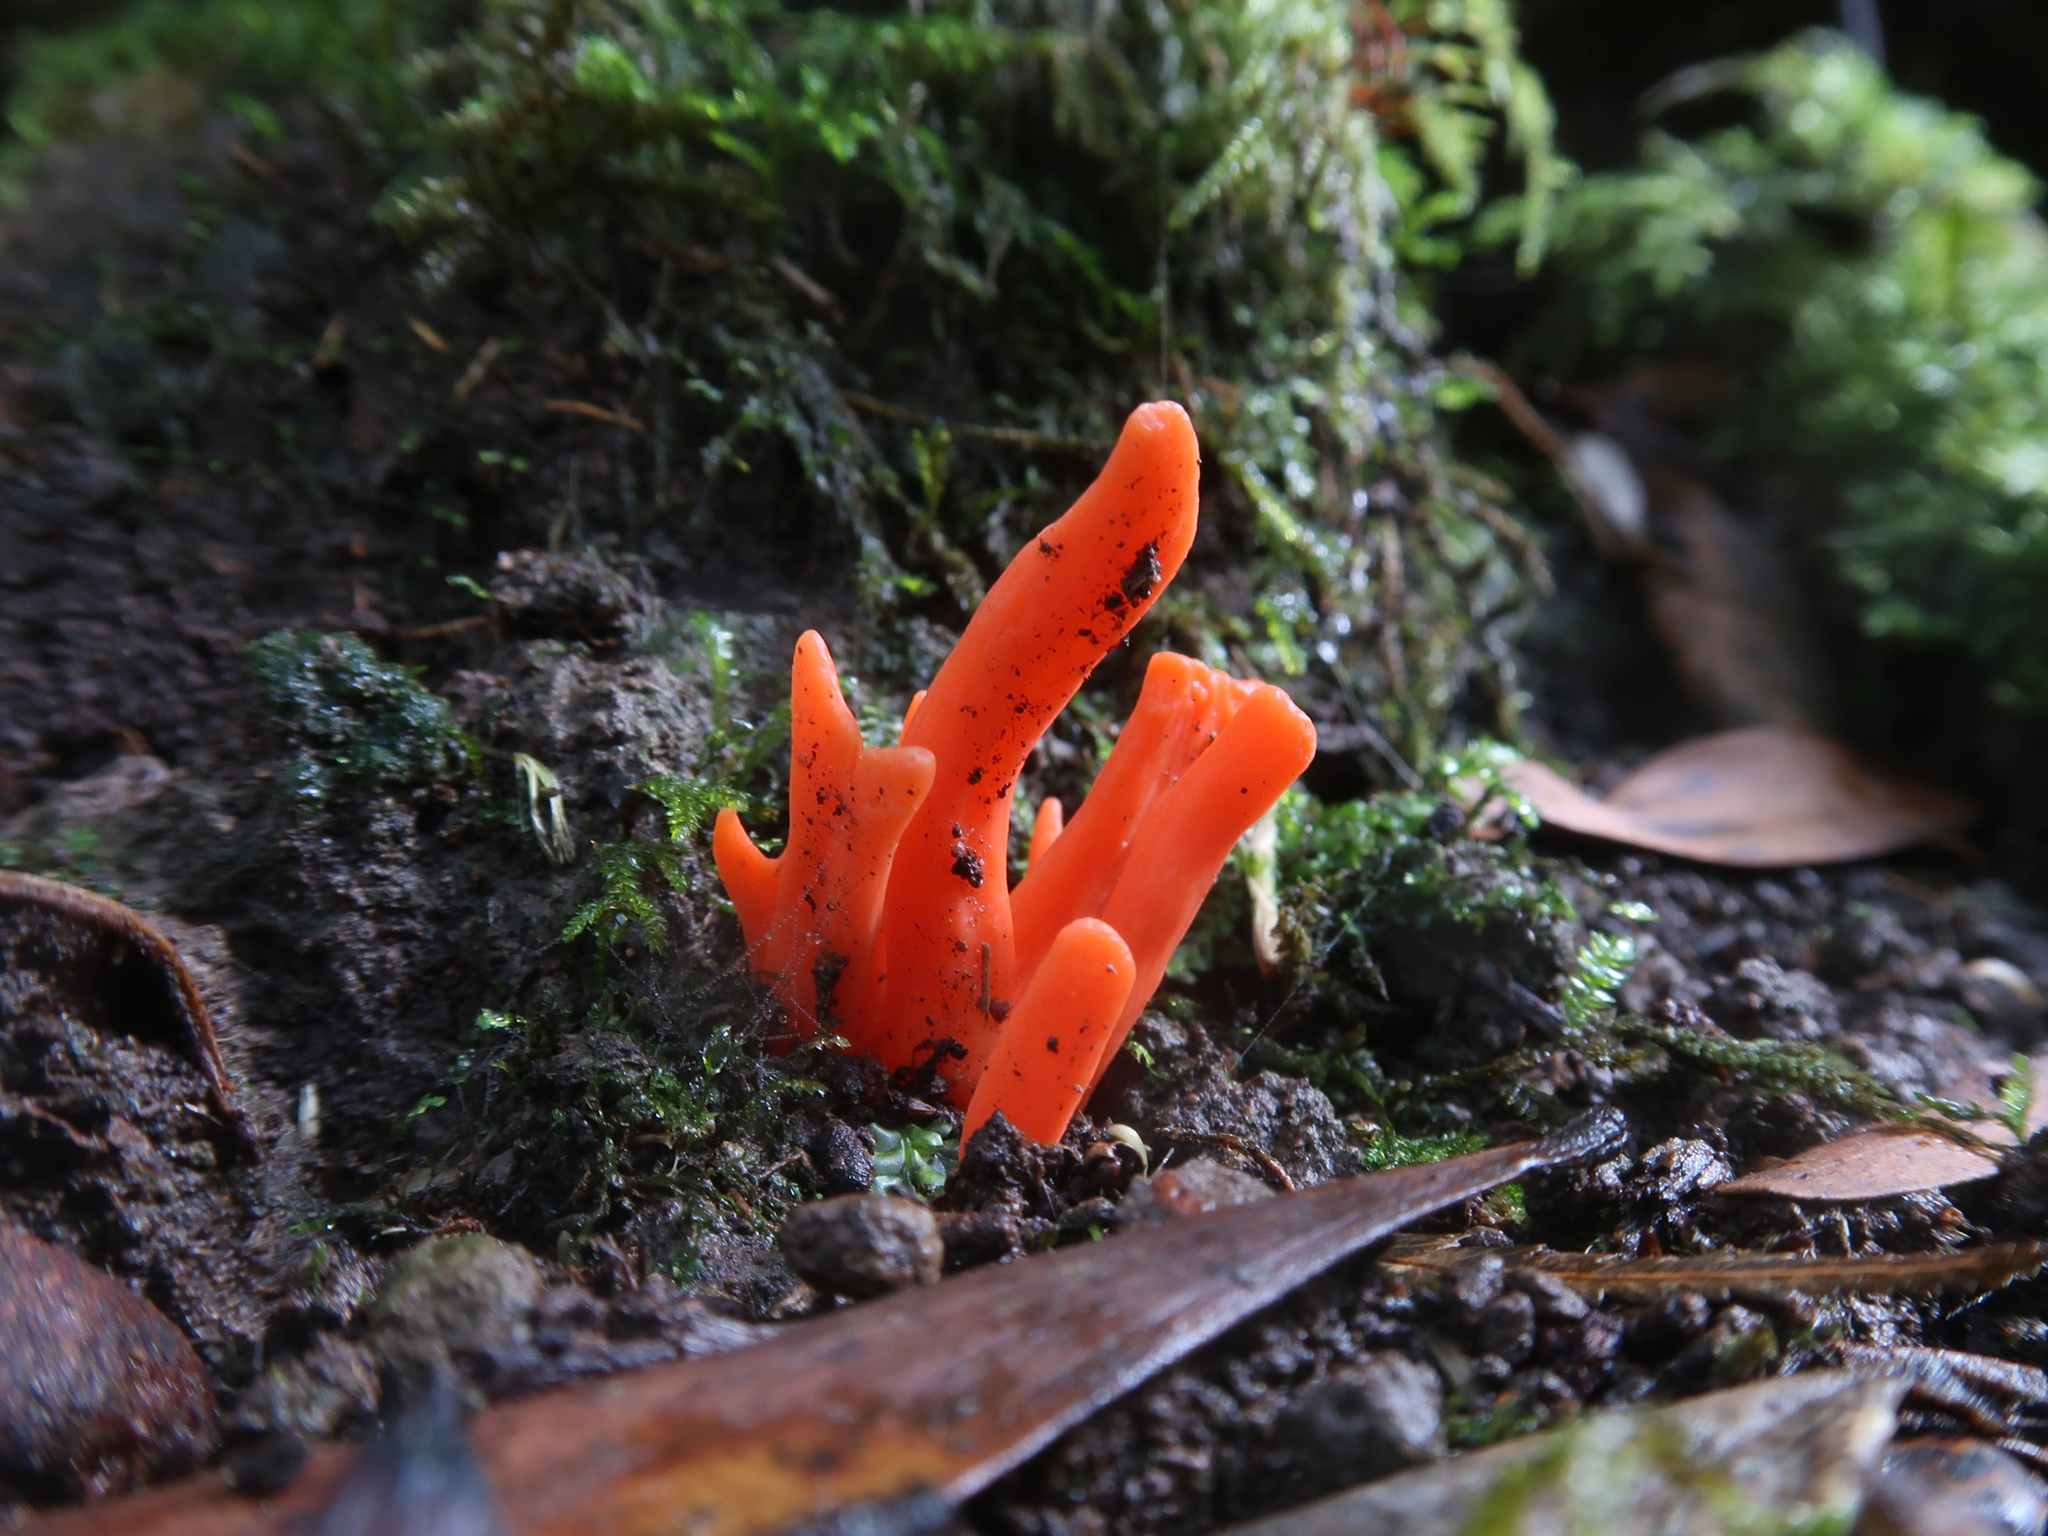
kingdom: Fungi
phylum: Basidiomycota
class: Agaricomycetes
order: Agaricales
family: Clavariaceae
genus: Clavulinopsis
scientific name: Clavulinopsis sulcata
